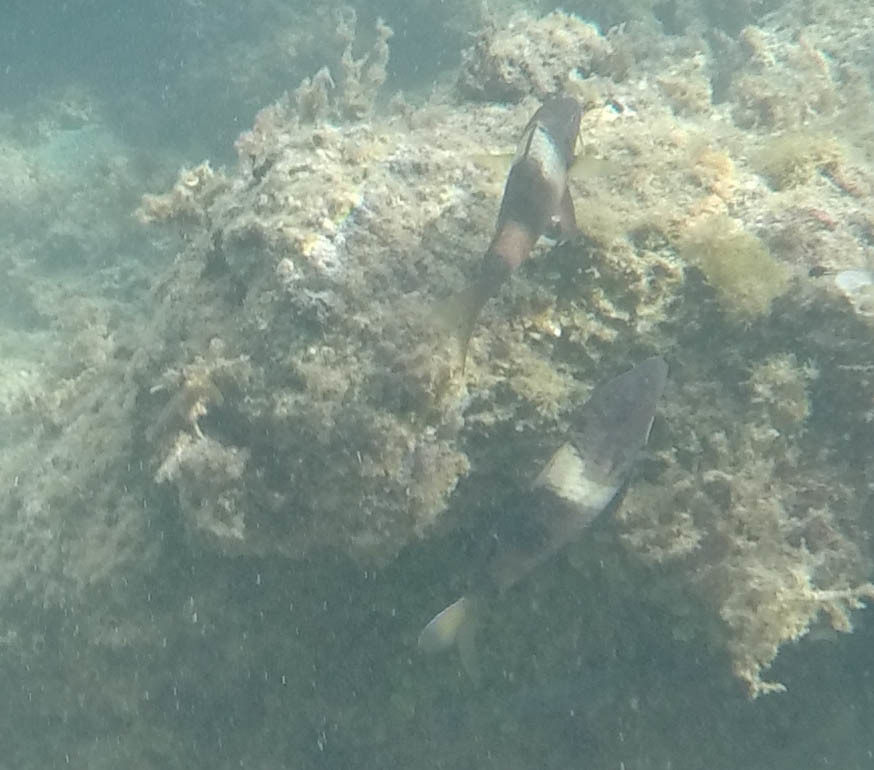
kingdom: Animalia
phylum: Chordata
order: Perciformes
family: Mullidae
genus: Parupeneus
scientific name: Parupeneus multifasciatus
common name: Manybar goatfish
